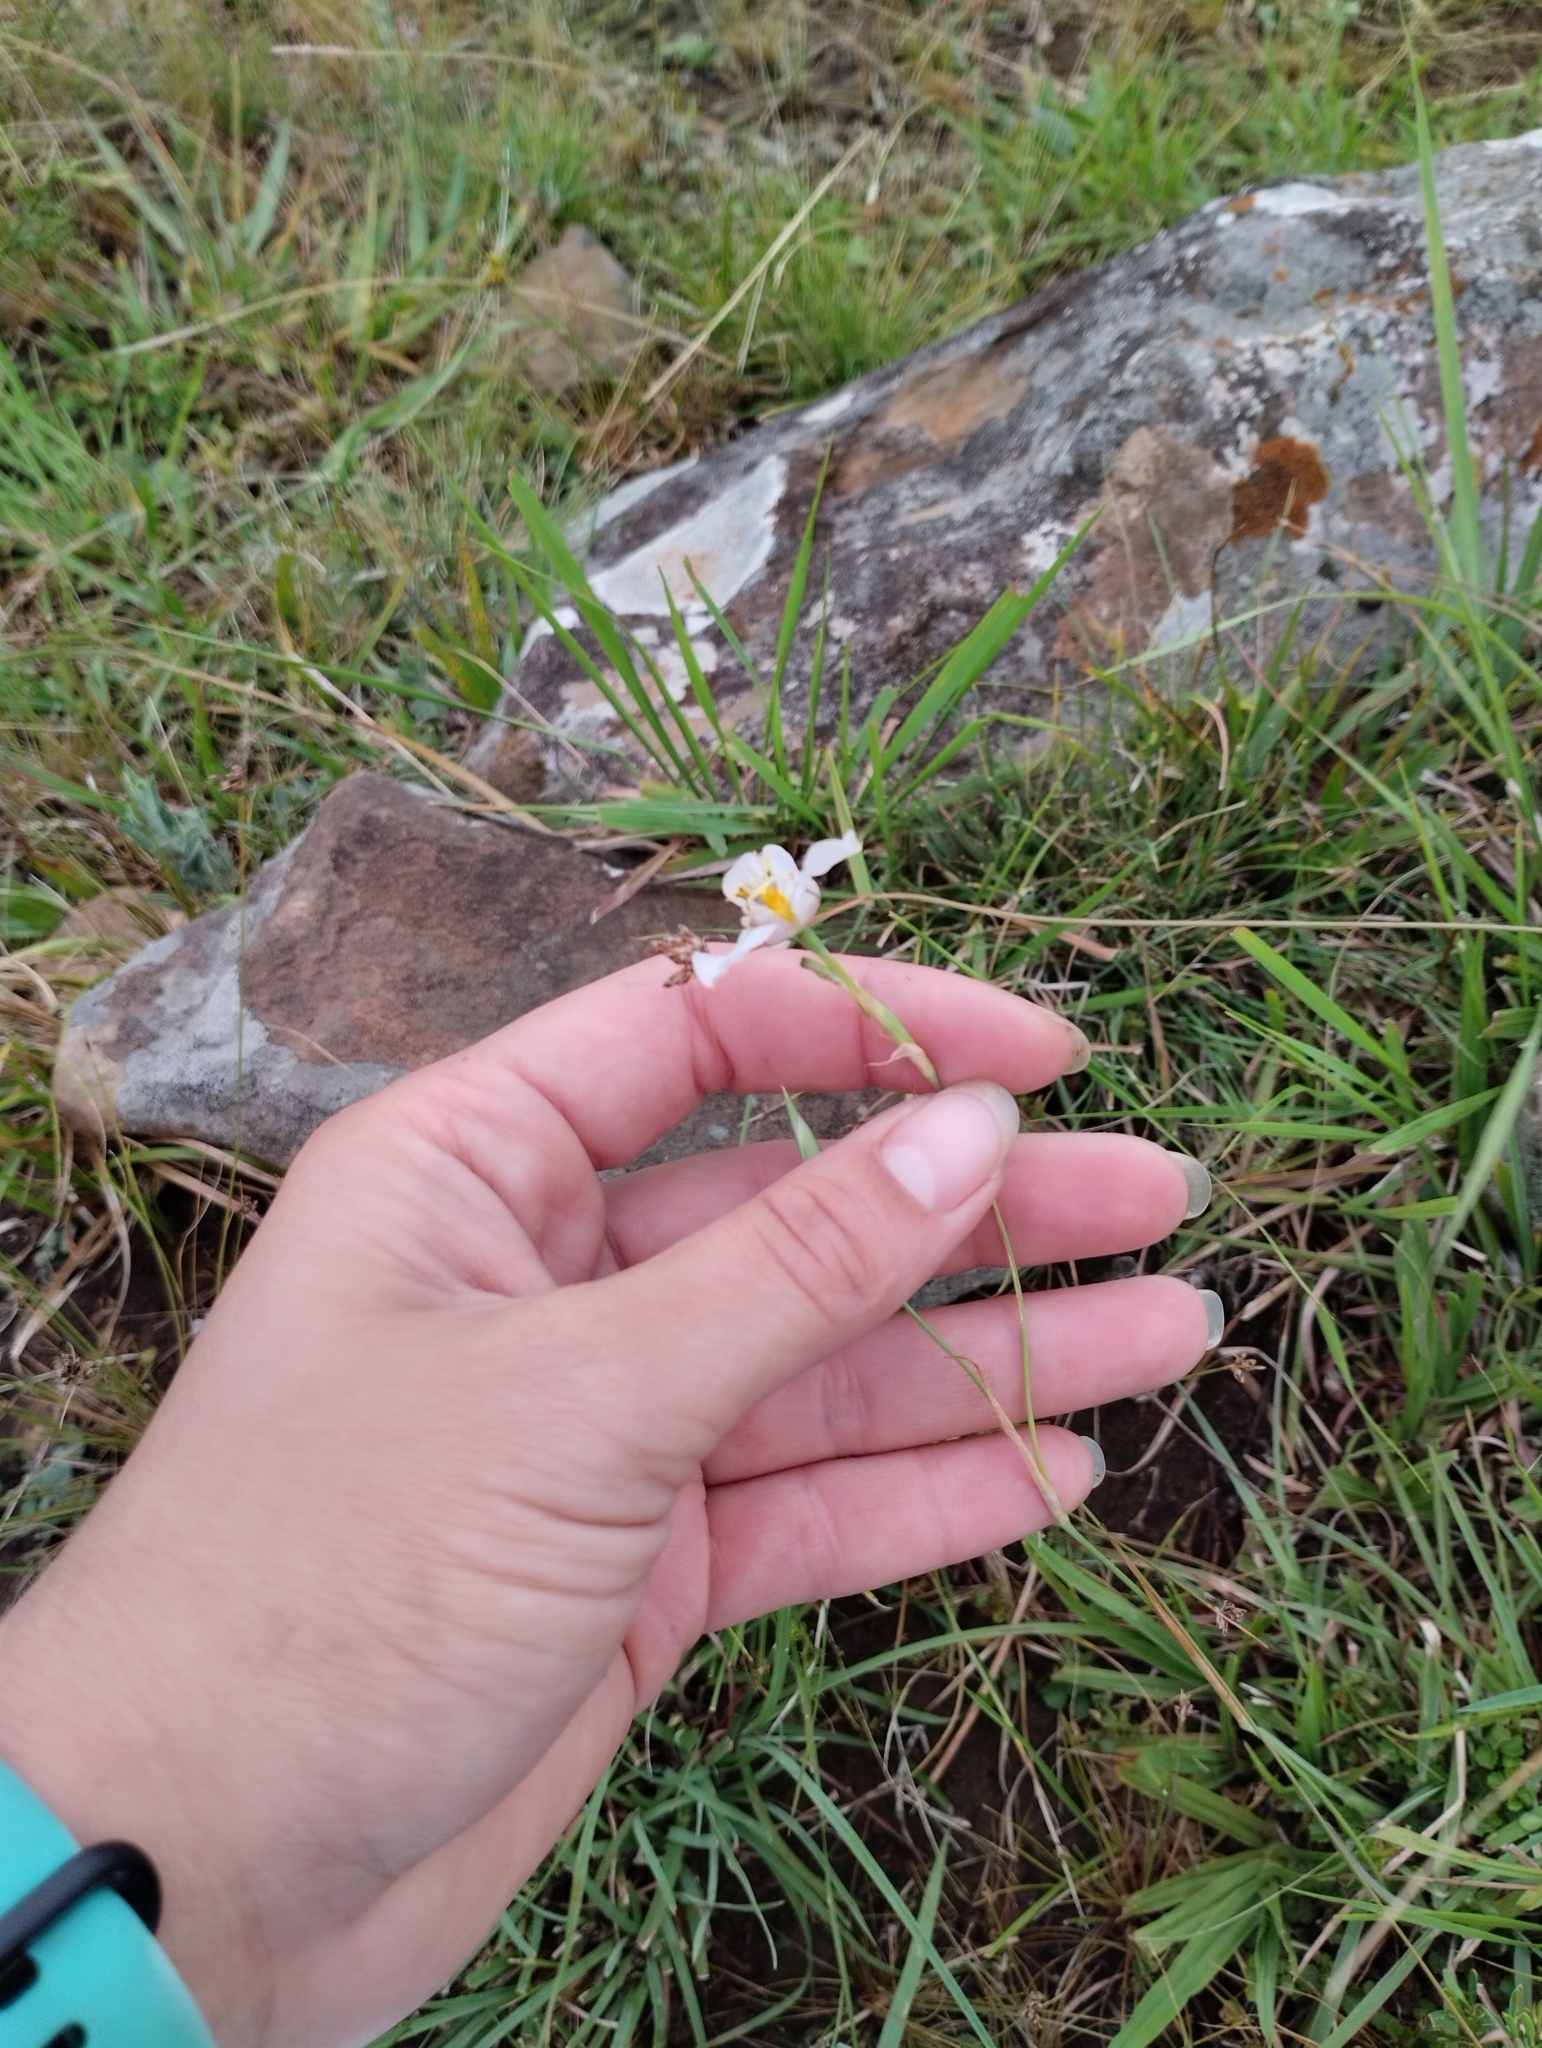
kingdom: Plantae
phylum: Tracheophyta
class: Liliopsida
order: Asparagales
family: Iridaceae
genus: Cypella
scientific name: Cypella osteniana
